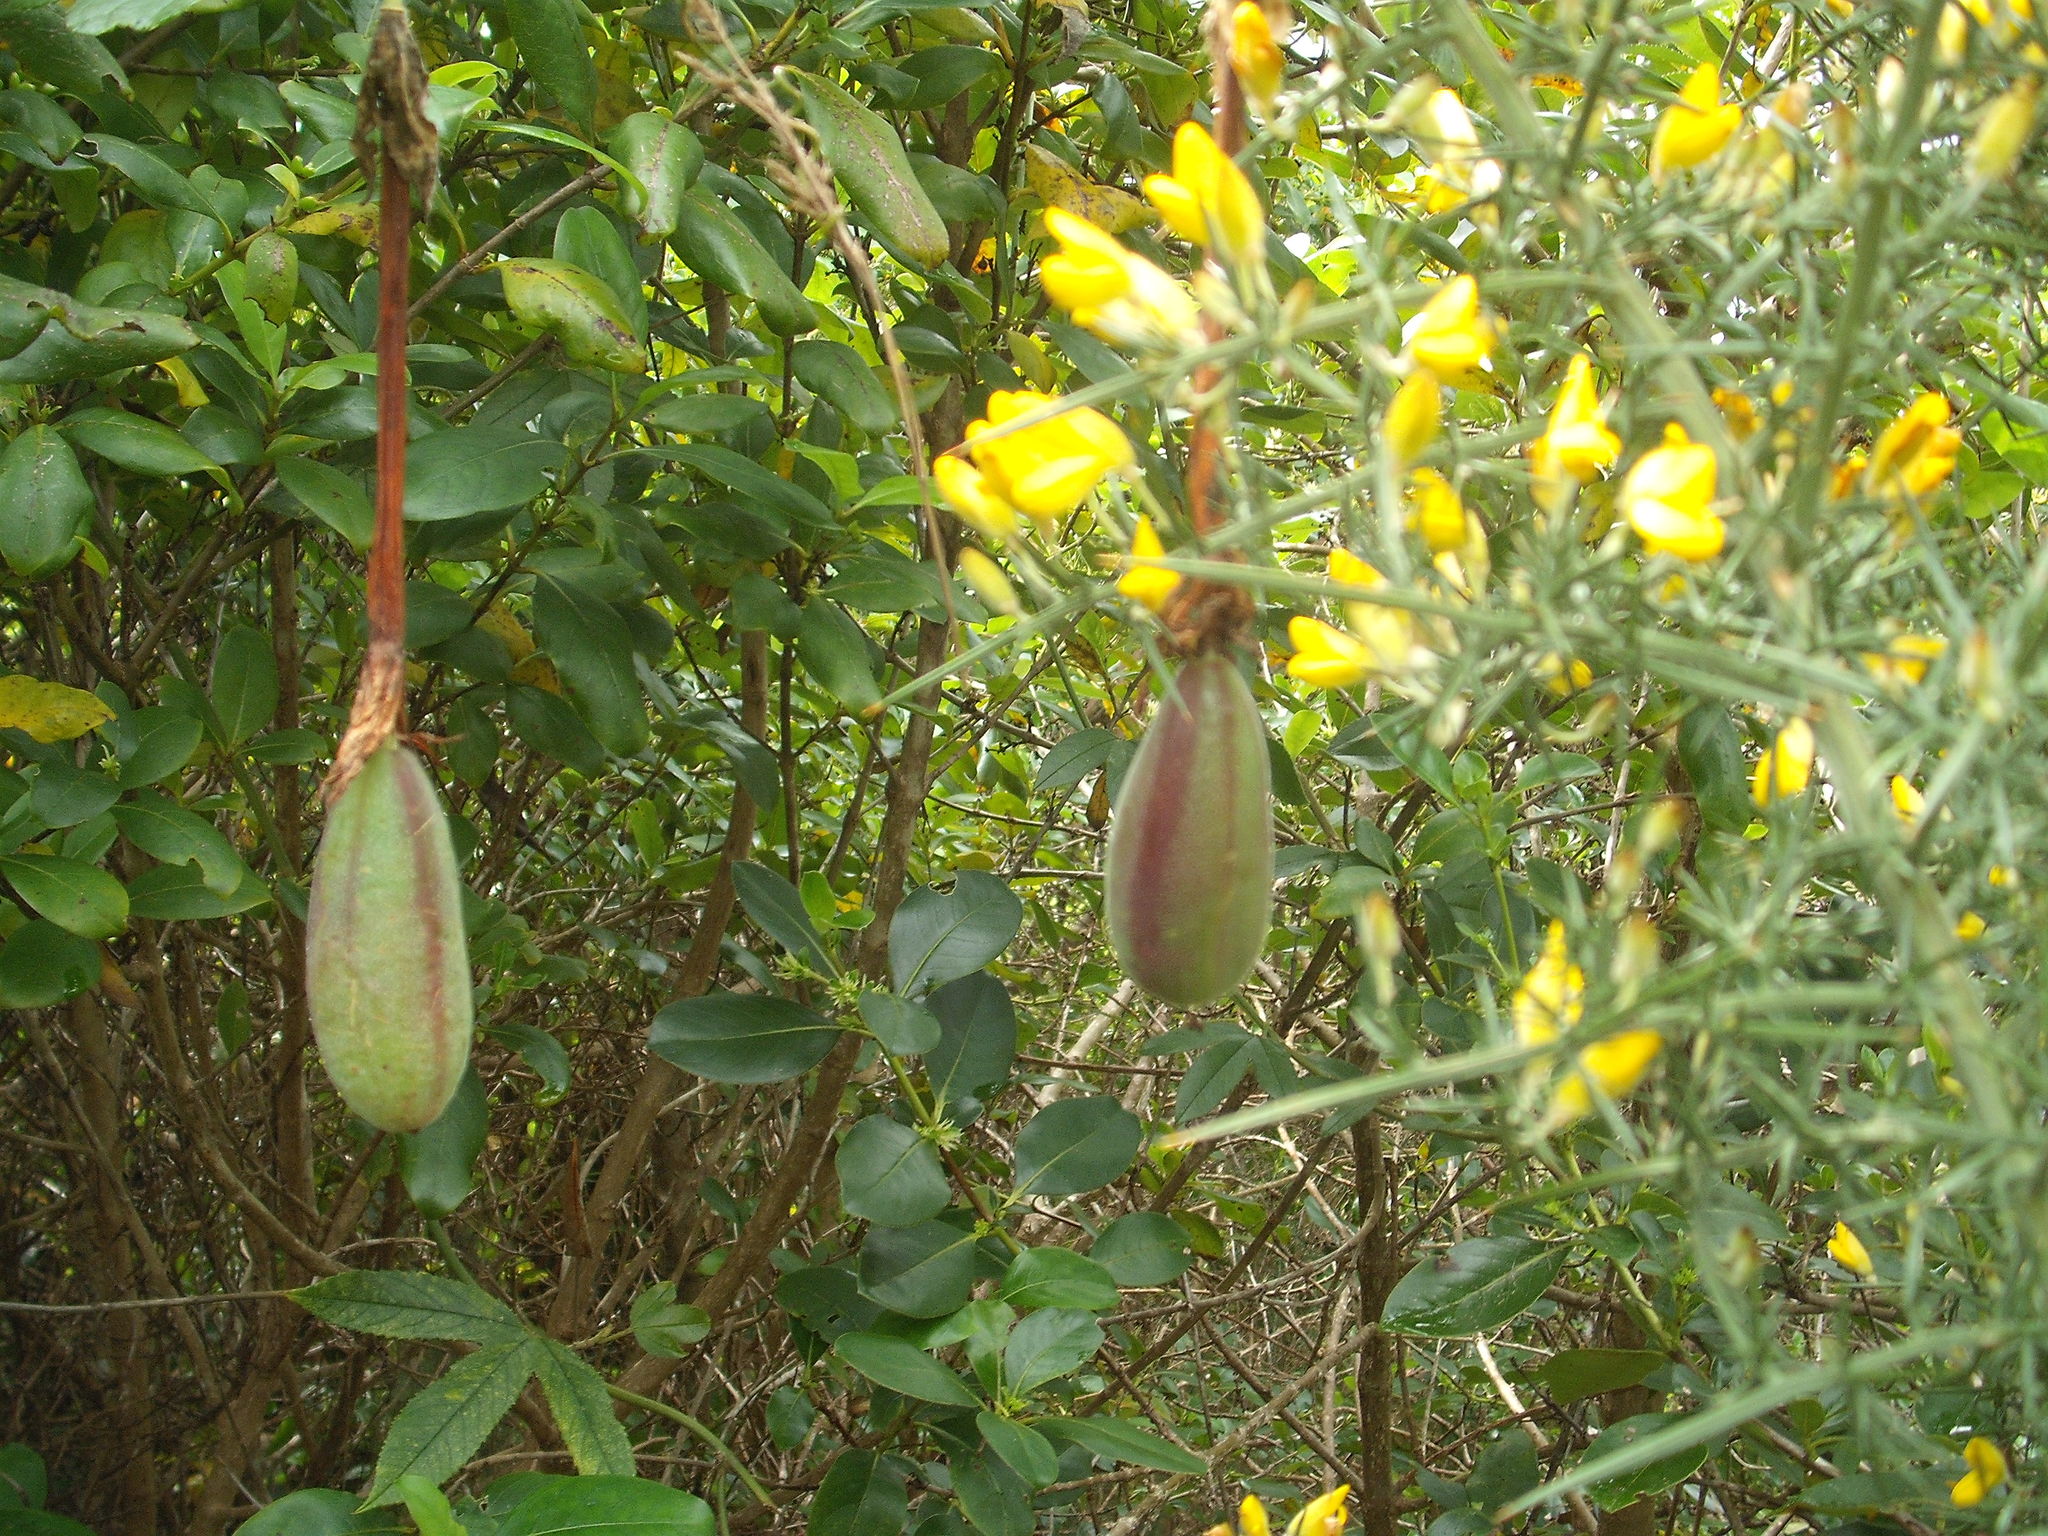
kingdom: Plantae
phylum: Tracheophyta
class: Magnoliopsida
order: Malpighiales
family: Passifloraceae
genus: Passiflora
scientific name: Passiflora tripartita
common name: Banana poka
